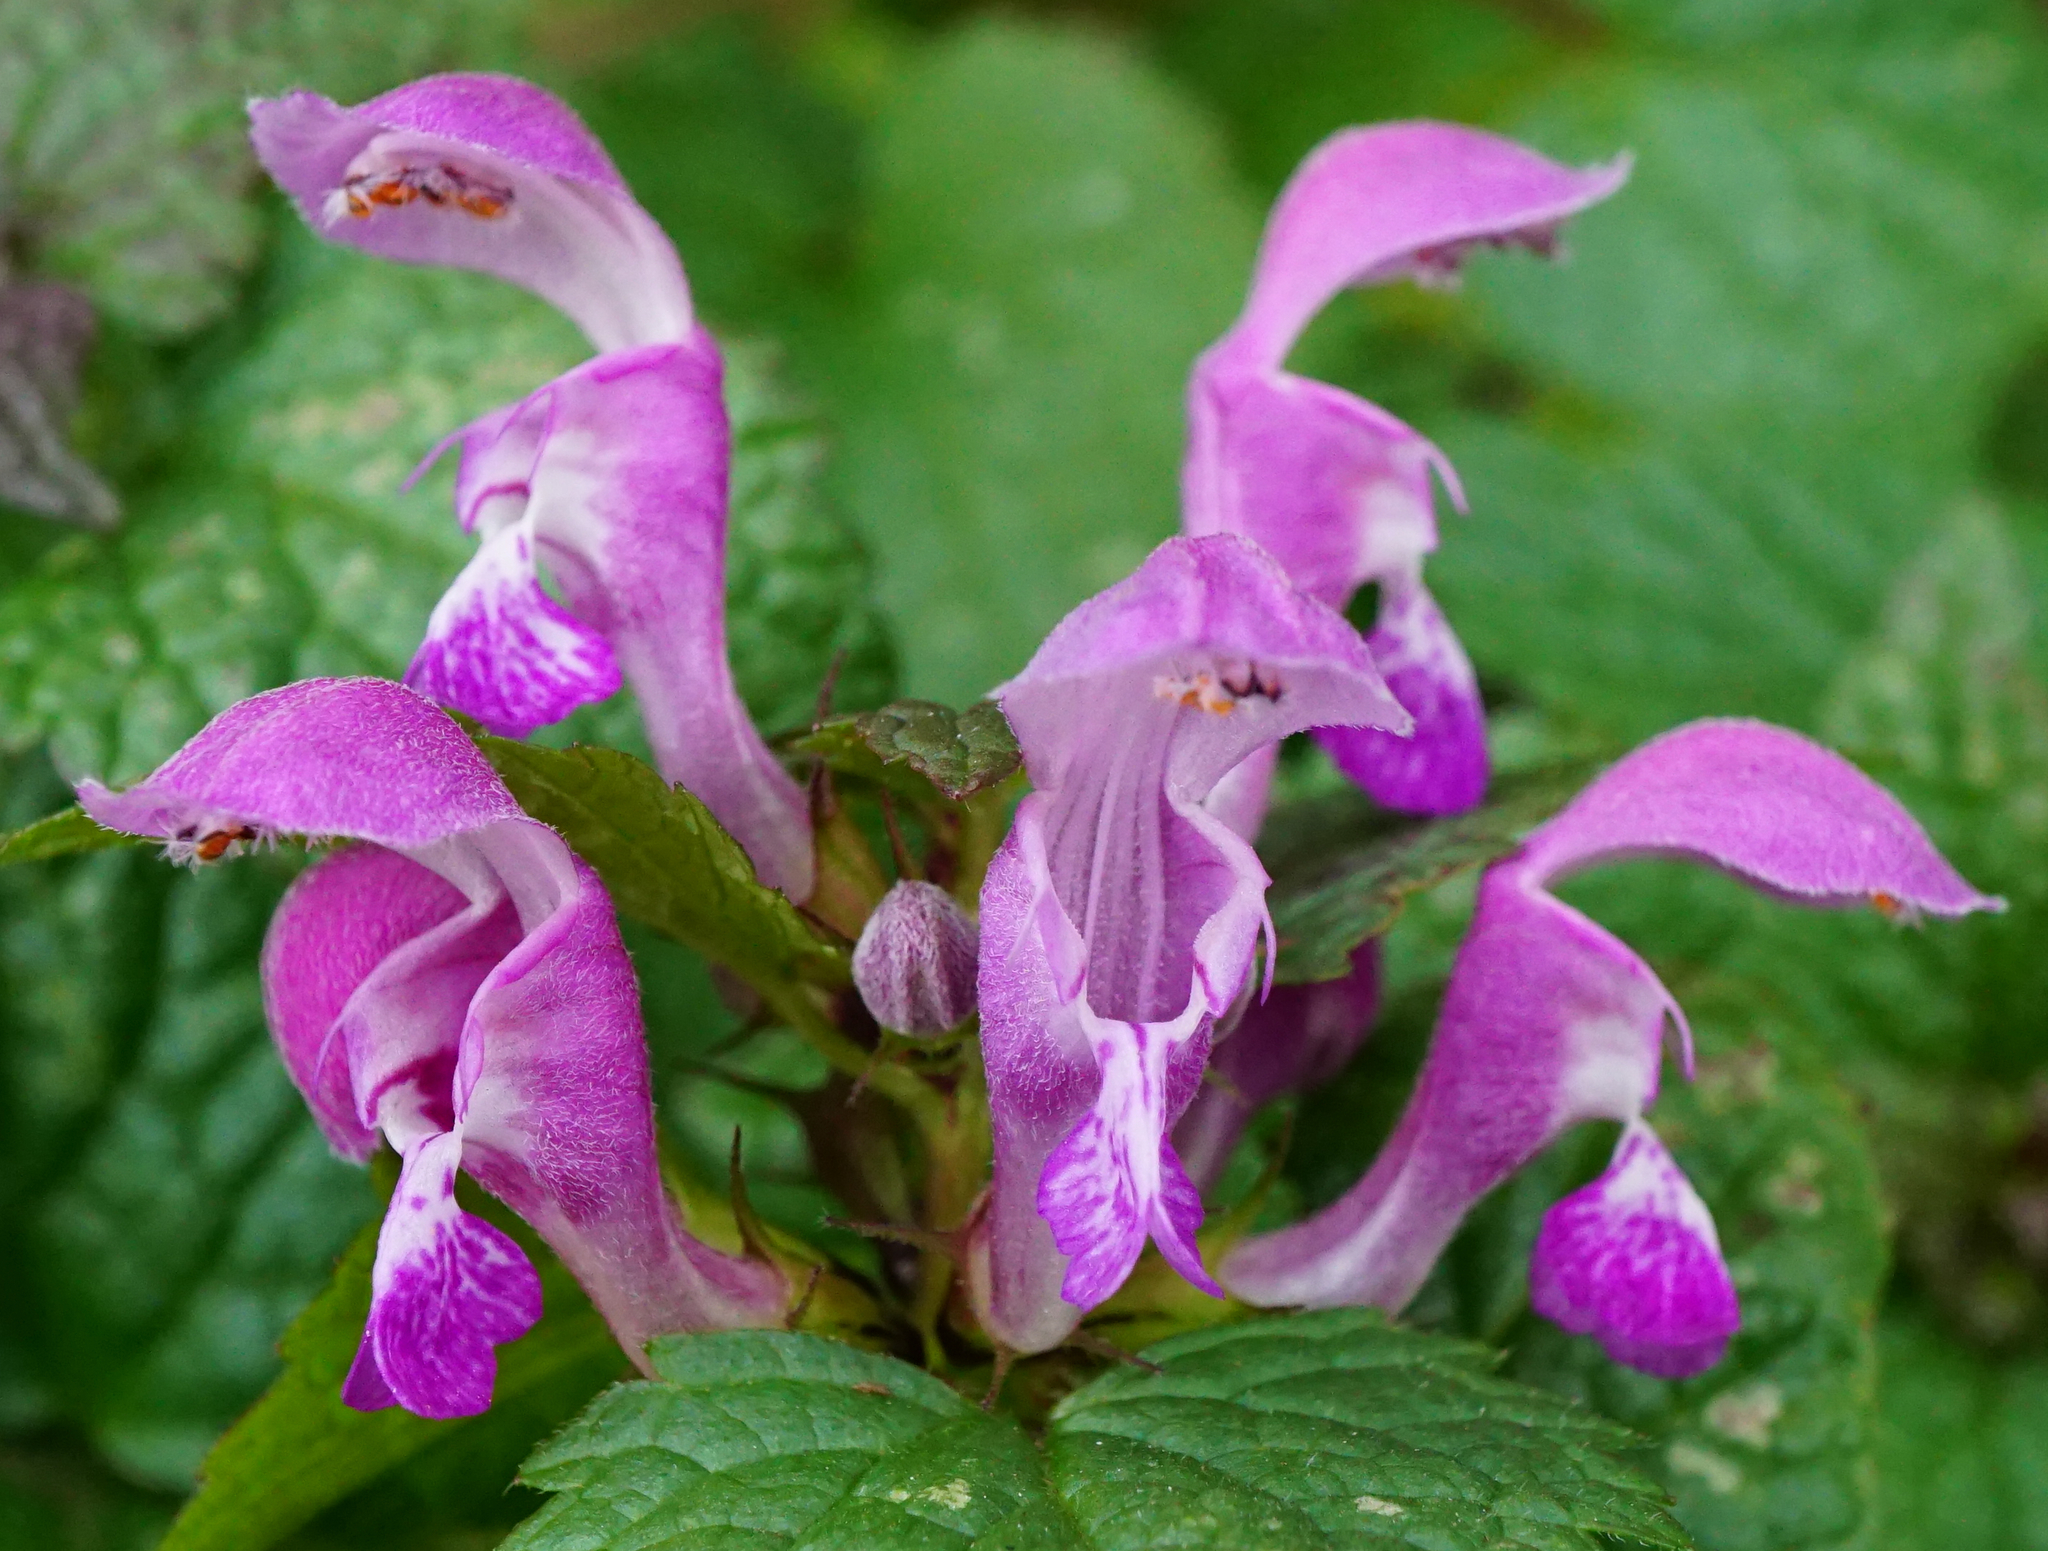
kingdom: Plantae
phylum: Tracheophyta
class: Magnoliopsida
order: Lamiales
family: Lamiaceae
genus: Lamium
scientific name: Lamium maculatum
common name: Spotted dead-nettle
